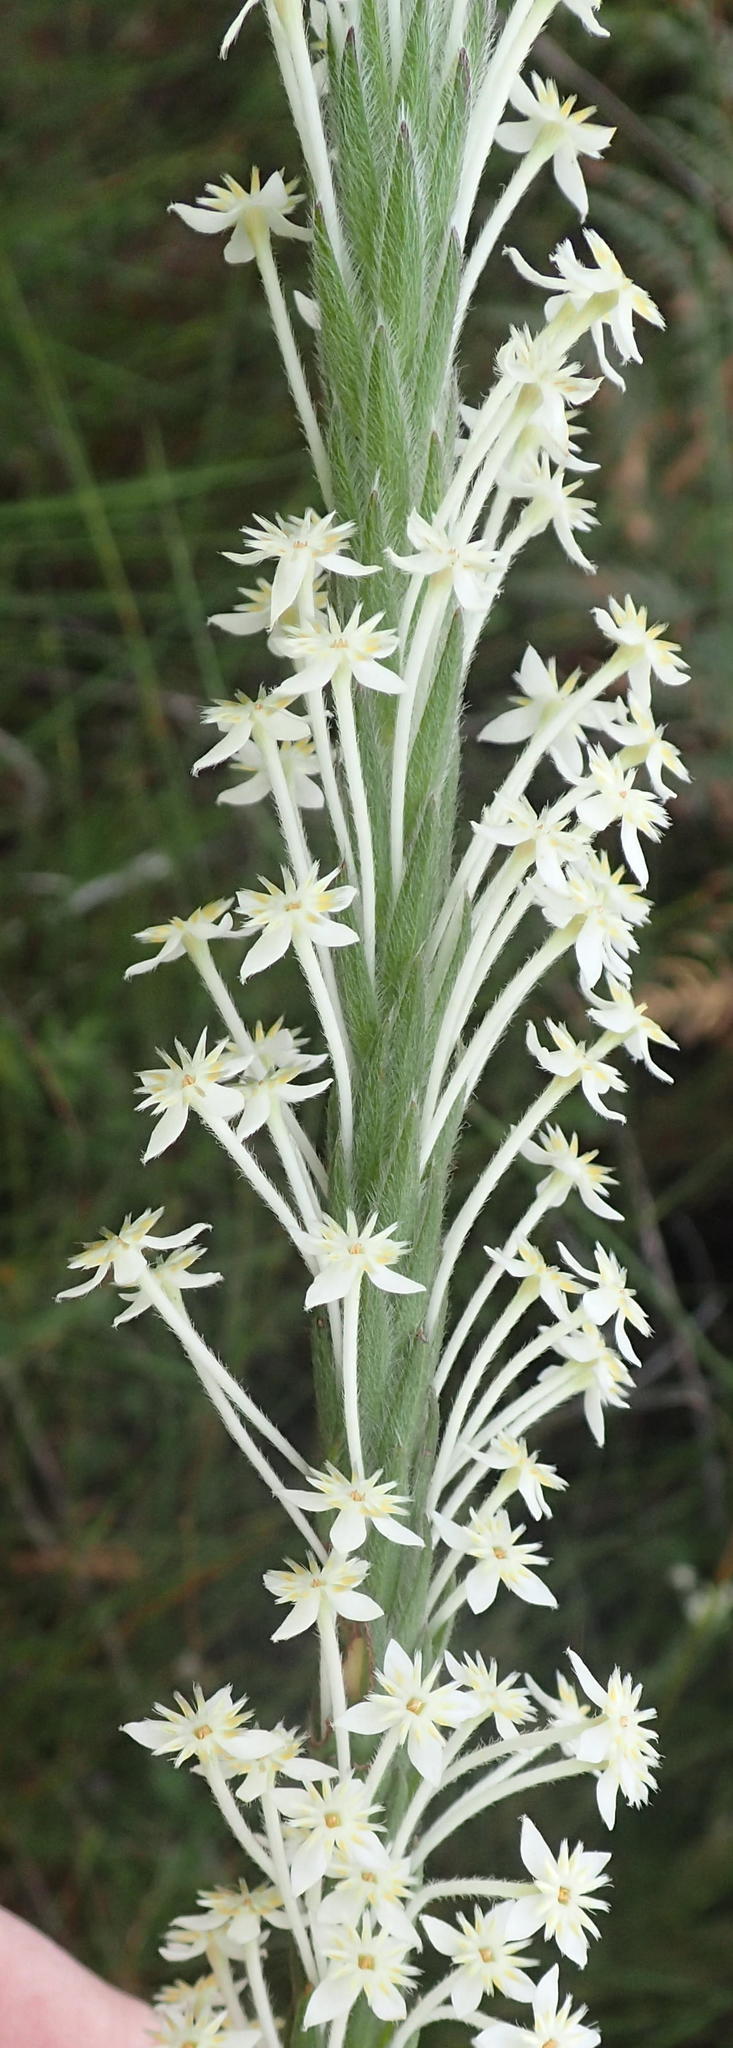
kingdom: Plantae
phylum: Tracheophyta
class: Magnoliopsida
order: Malvales
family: Thymelaeaceae
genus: Struthiola
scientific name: Struthiola martiana
